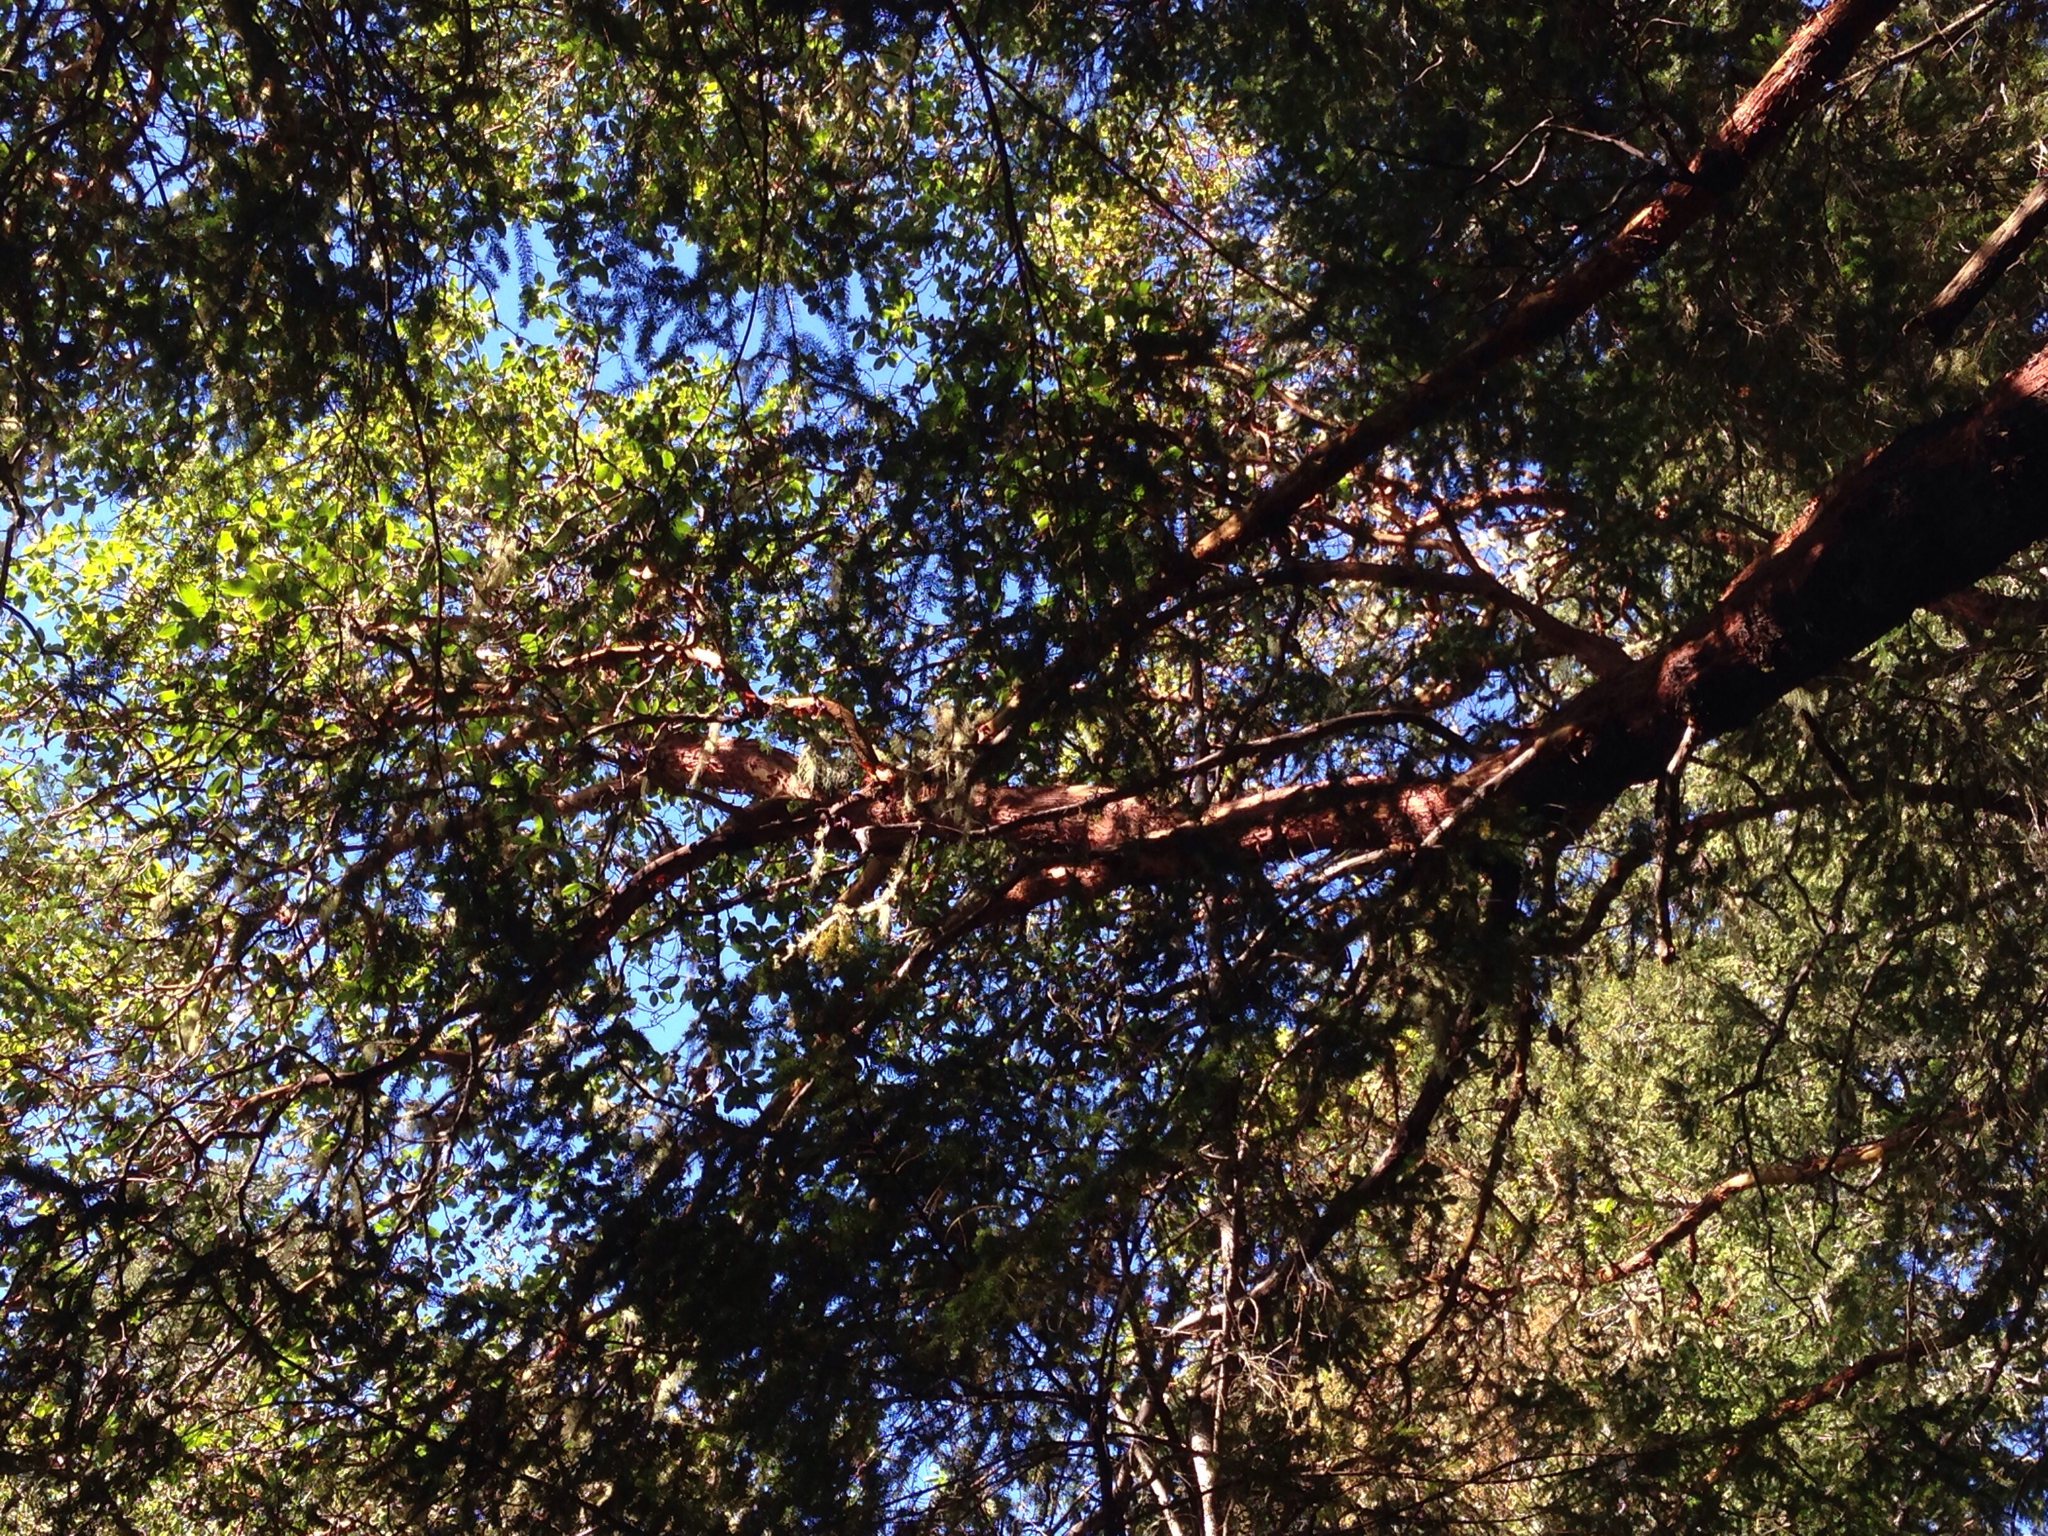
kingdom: Plantae
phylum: Tracheophyta
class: Magnoliopsida
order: Ericales
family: Ericaceae
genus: Arbutus
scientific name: Arbutus menziesii
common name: Pacific madrone
